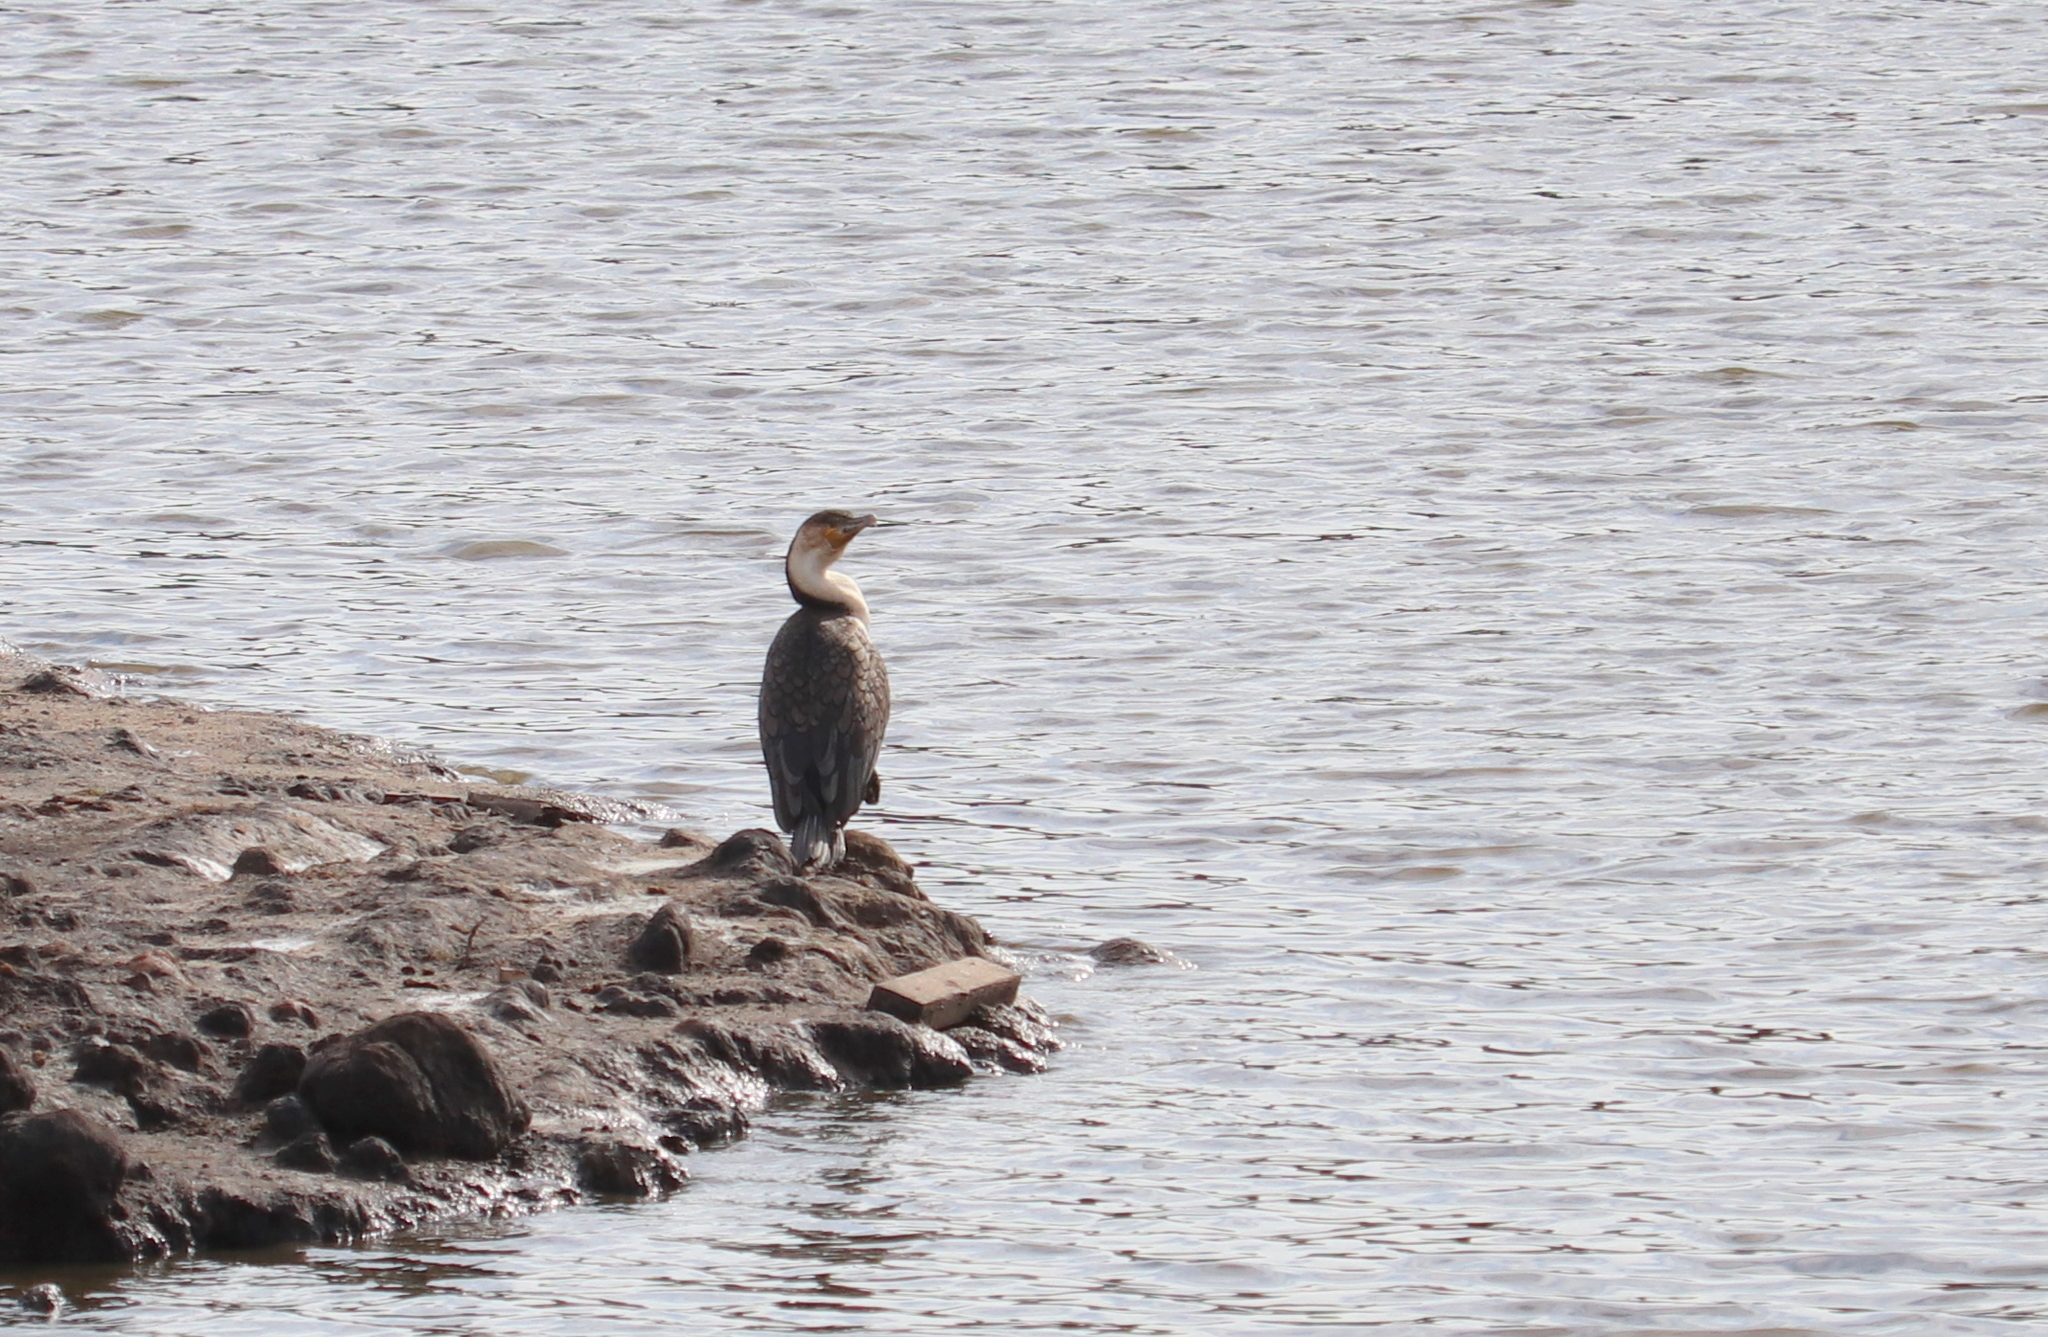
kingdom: Animalia
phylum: Chordata
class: Aves
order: Suliformes
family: Phalacrocoracidae
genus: Phalacrocorax
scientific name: Phalacrocorax carbo
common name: Great cormorant
